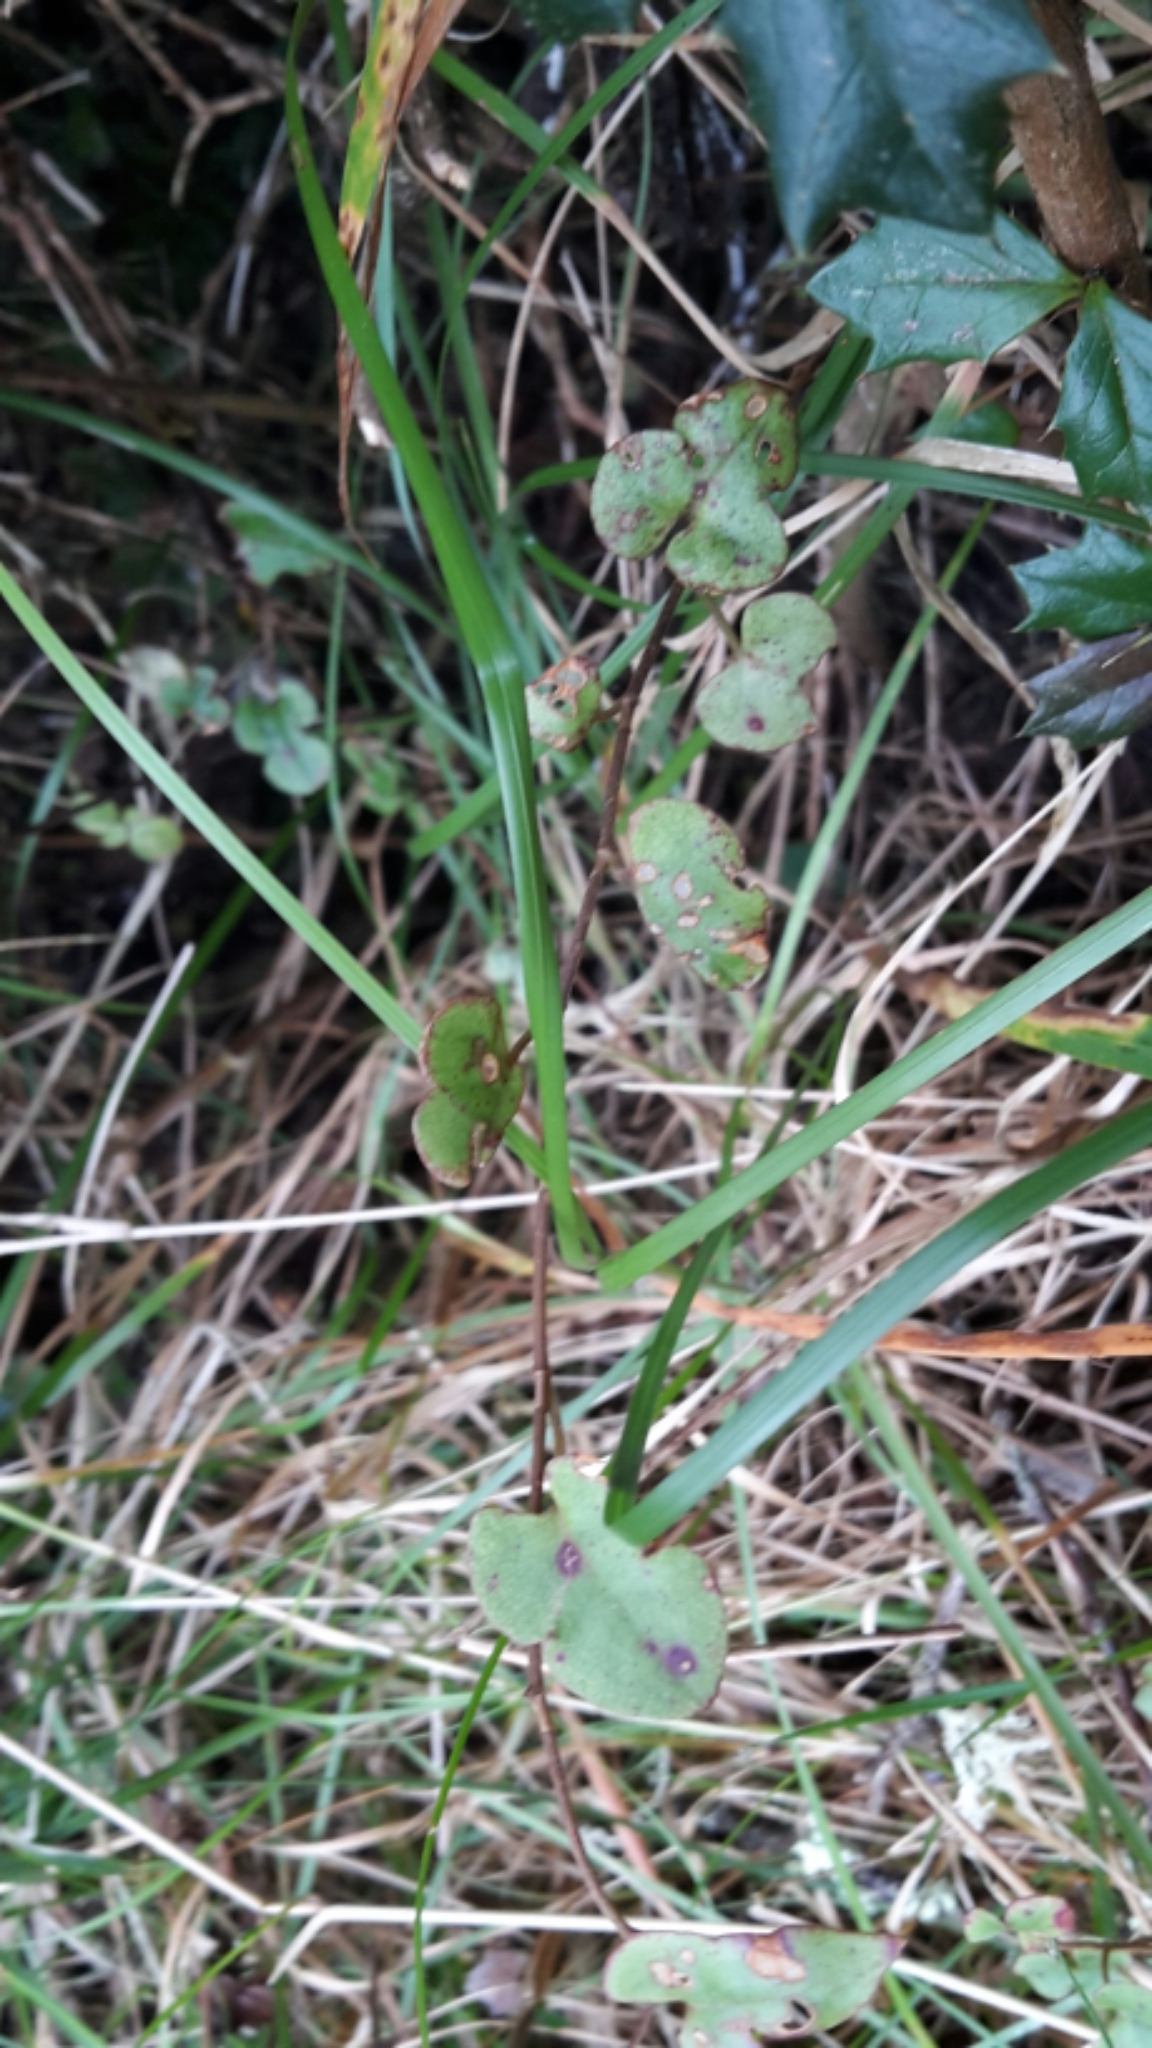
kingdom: Plantae
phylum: Tracheophyta
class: Magnoliopsida
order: Caryophyllales
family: Polygonaceae
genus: Muehlenbeckia
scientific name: Muehlenbeckia australis
